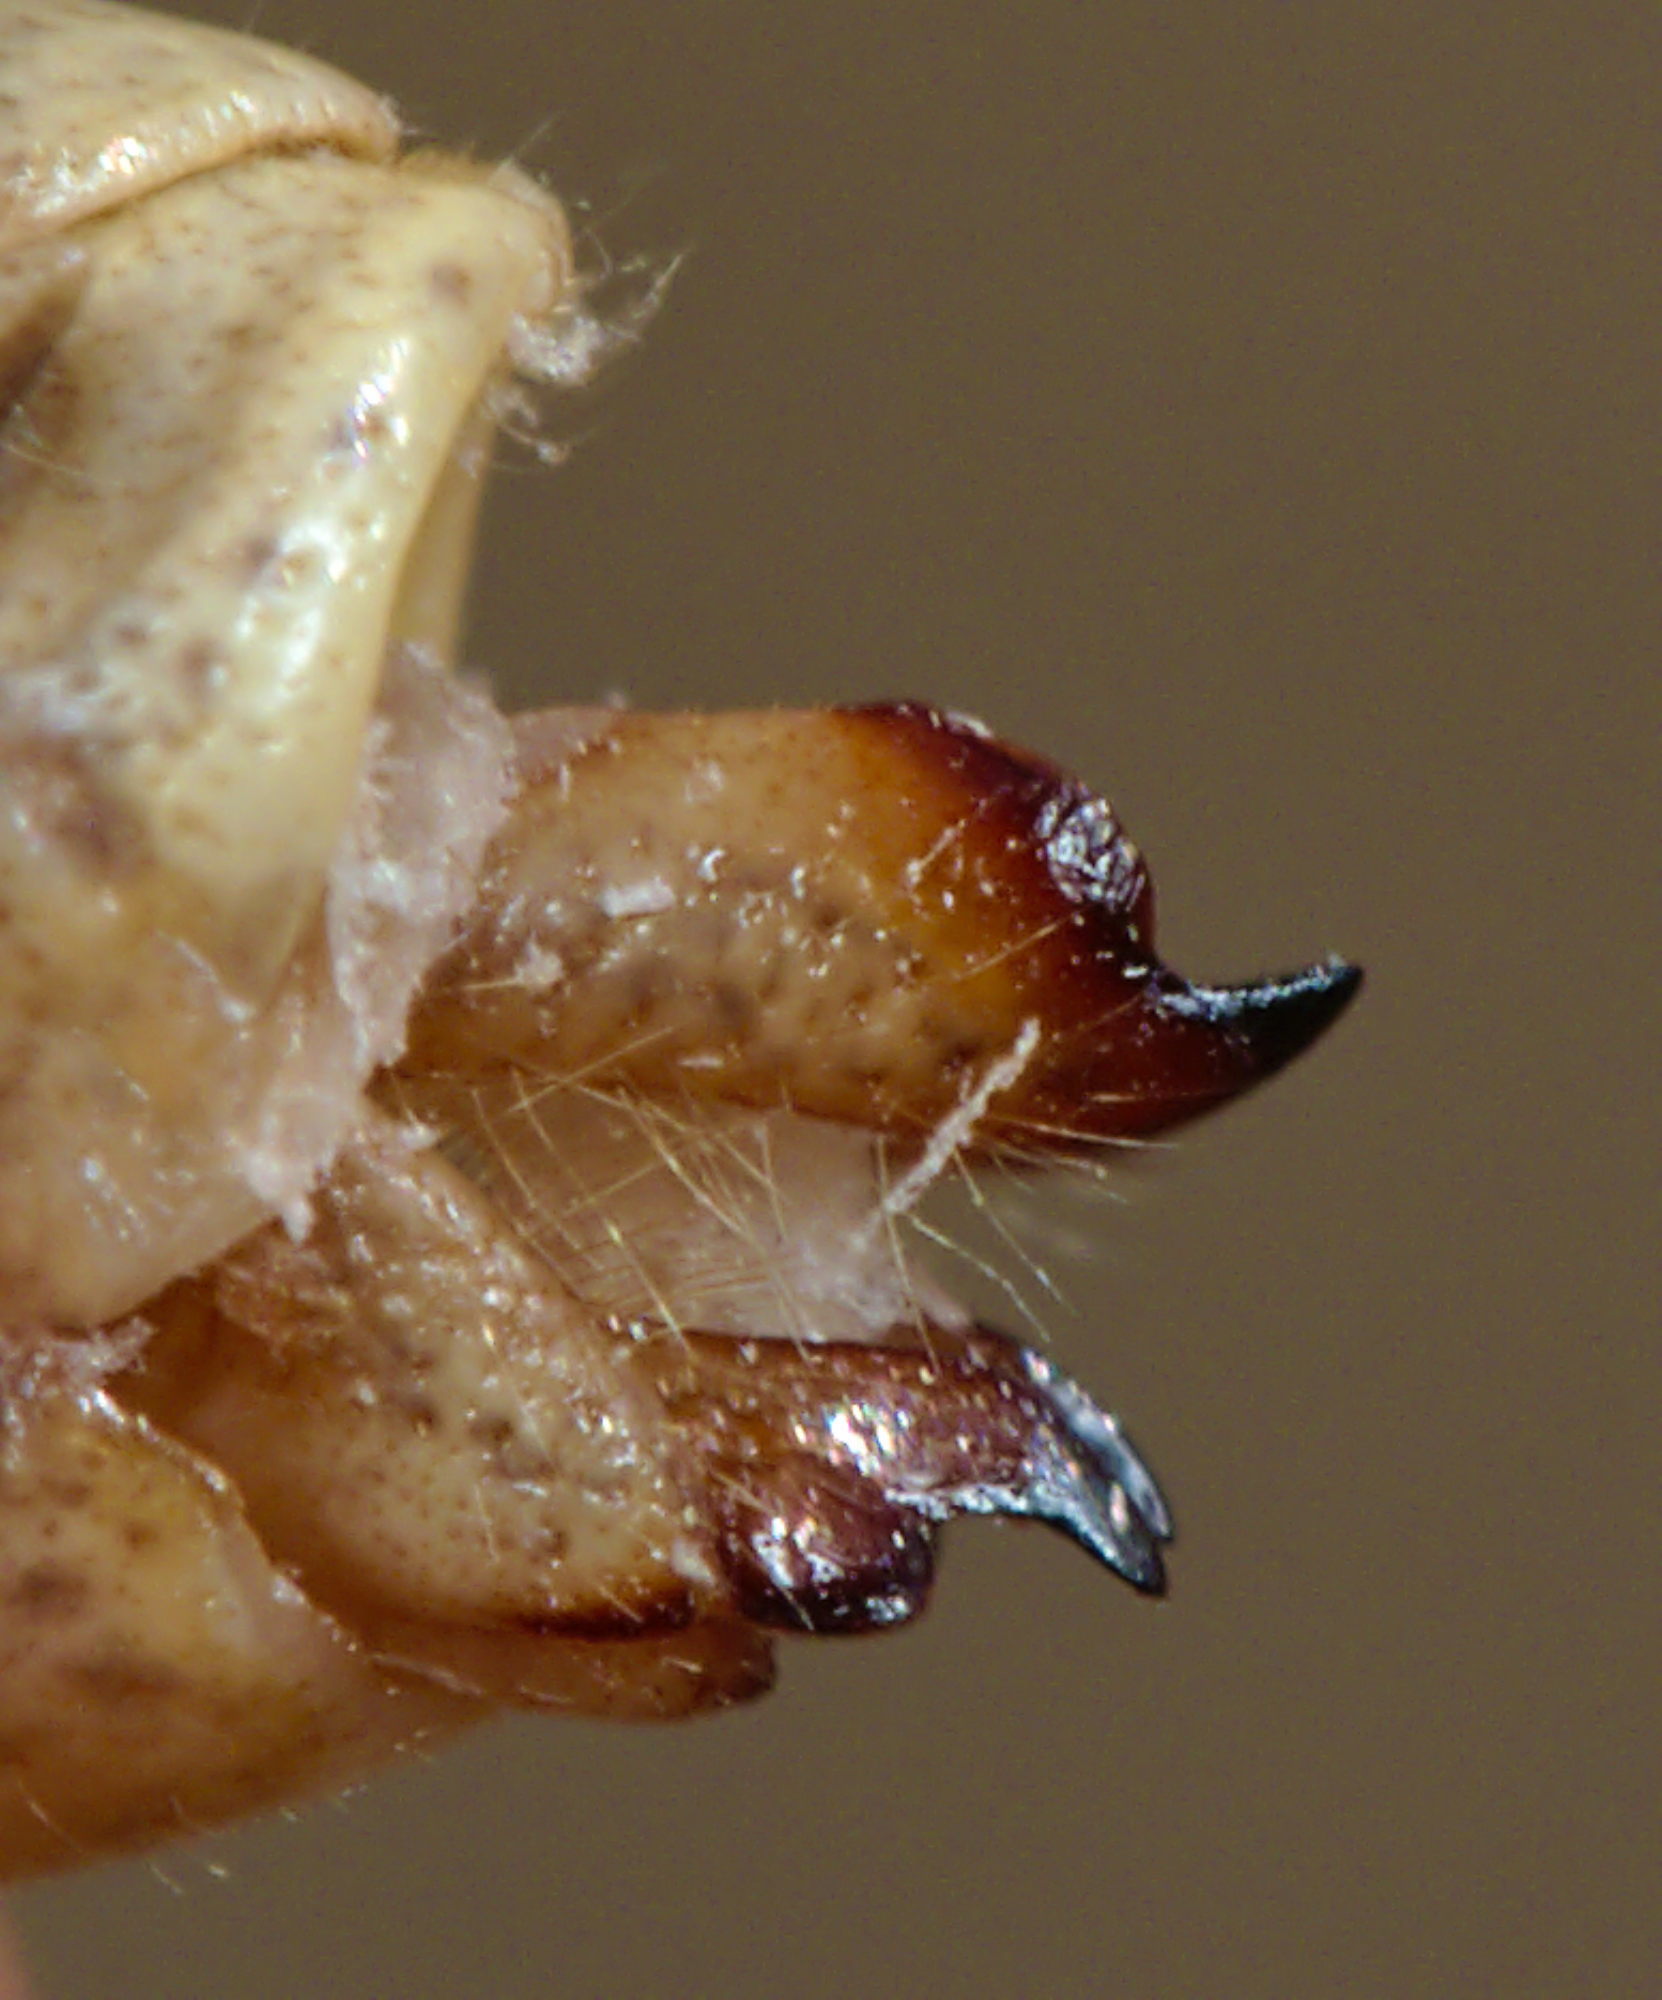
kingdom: Animalia
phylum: Arthropoda
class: Insecta
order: Orthoptera
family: Acrididae
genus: Omocestus
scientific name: Omocestus haemorrhoidalis
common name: Orange-tipped grasshopper
